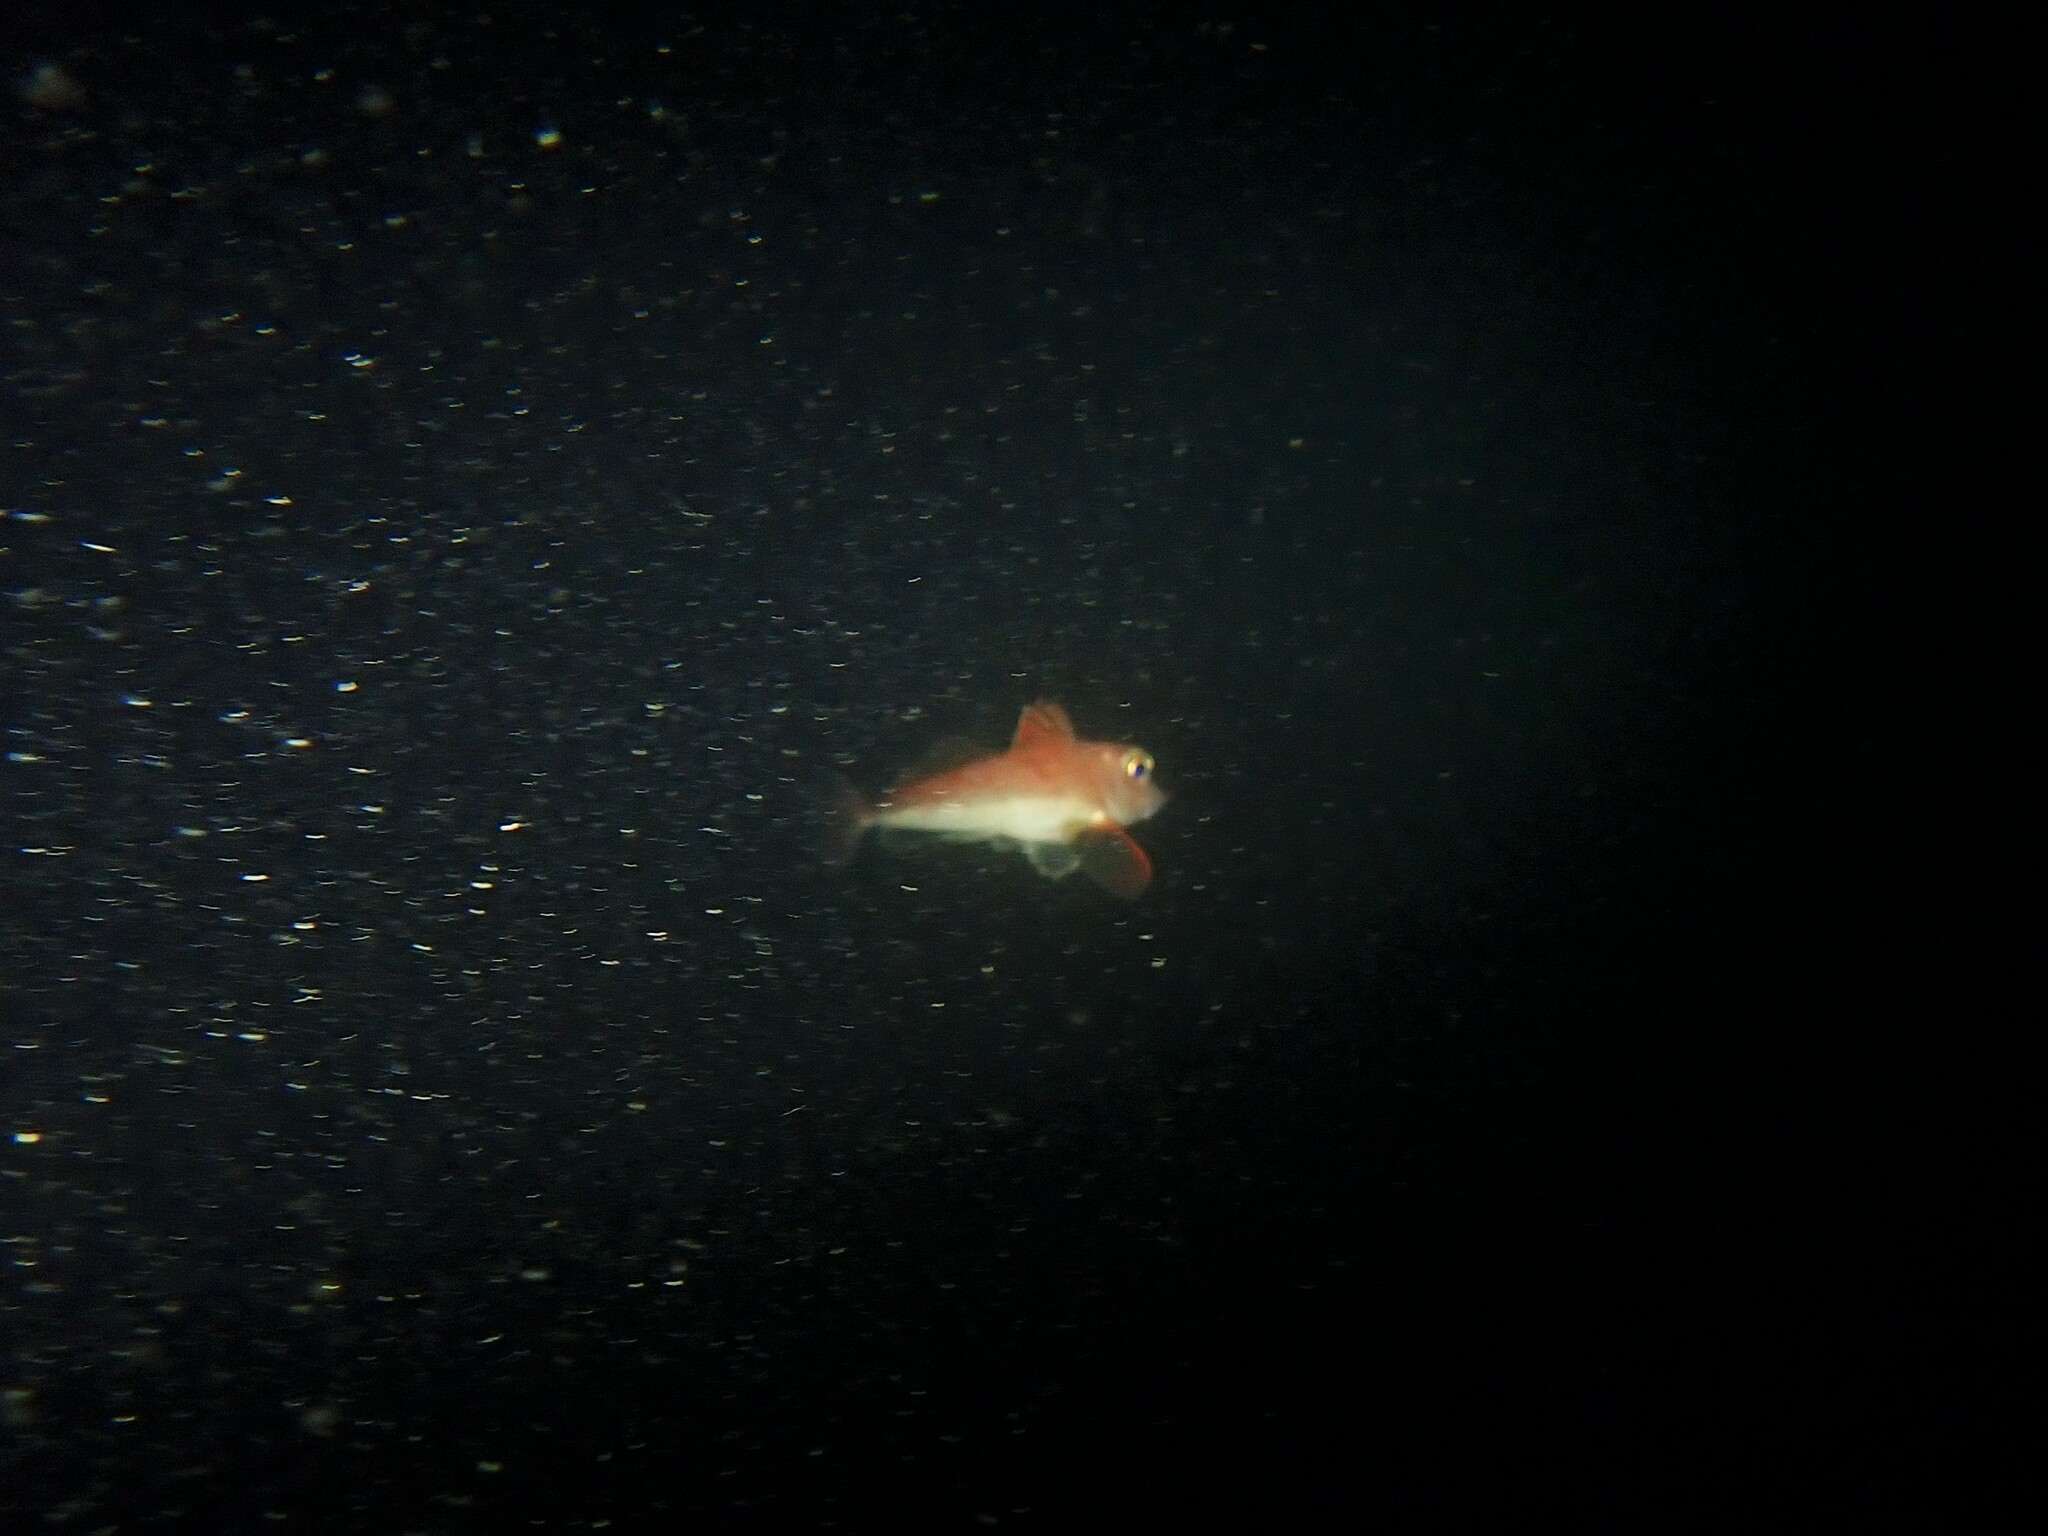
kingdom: Animalia
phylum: Chordata
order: Scorpaeniformes
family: Triglidae
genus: Lepidotrigla
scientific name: Lepidotrigla brachyoptera
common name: Scaly gurnard
